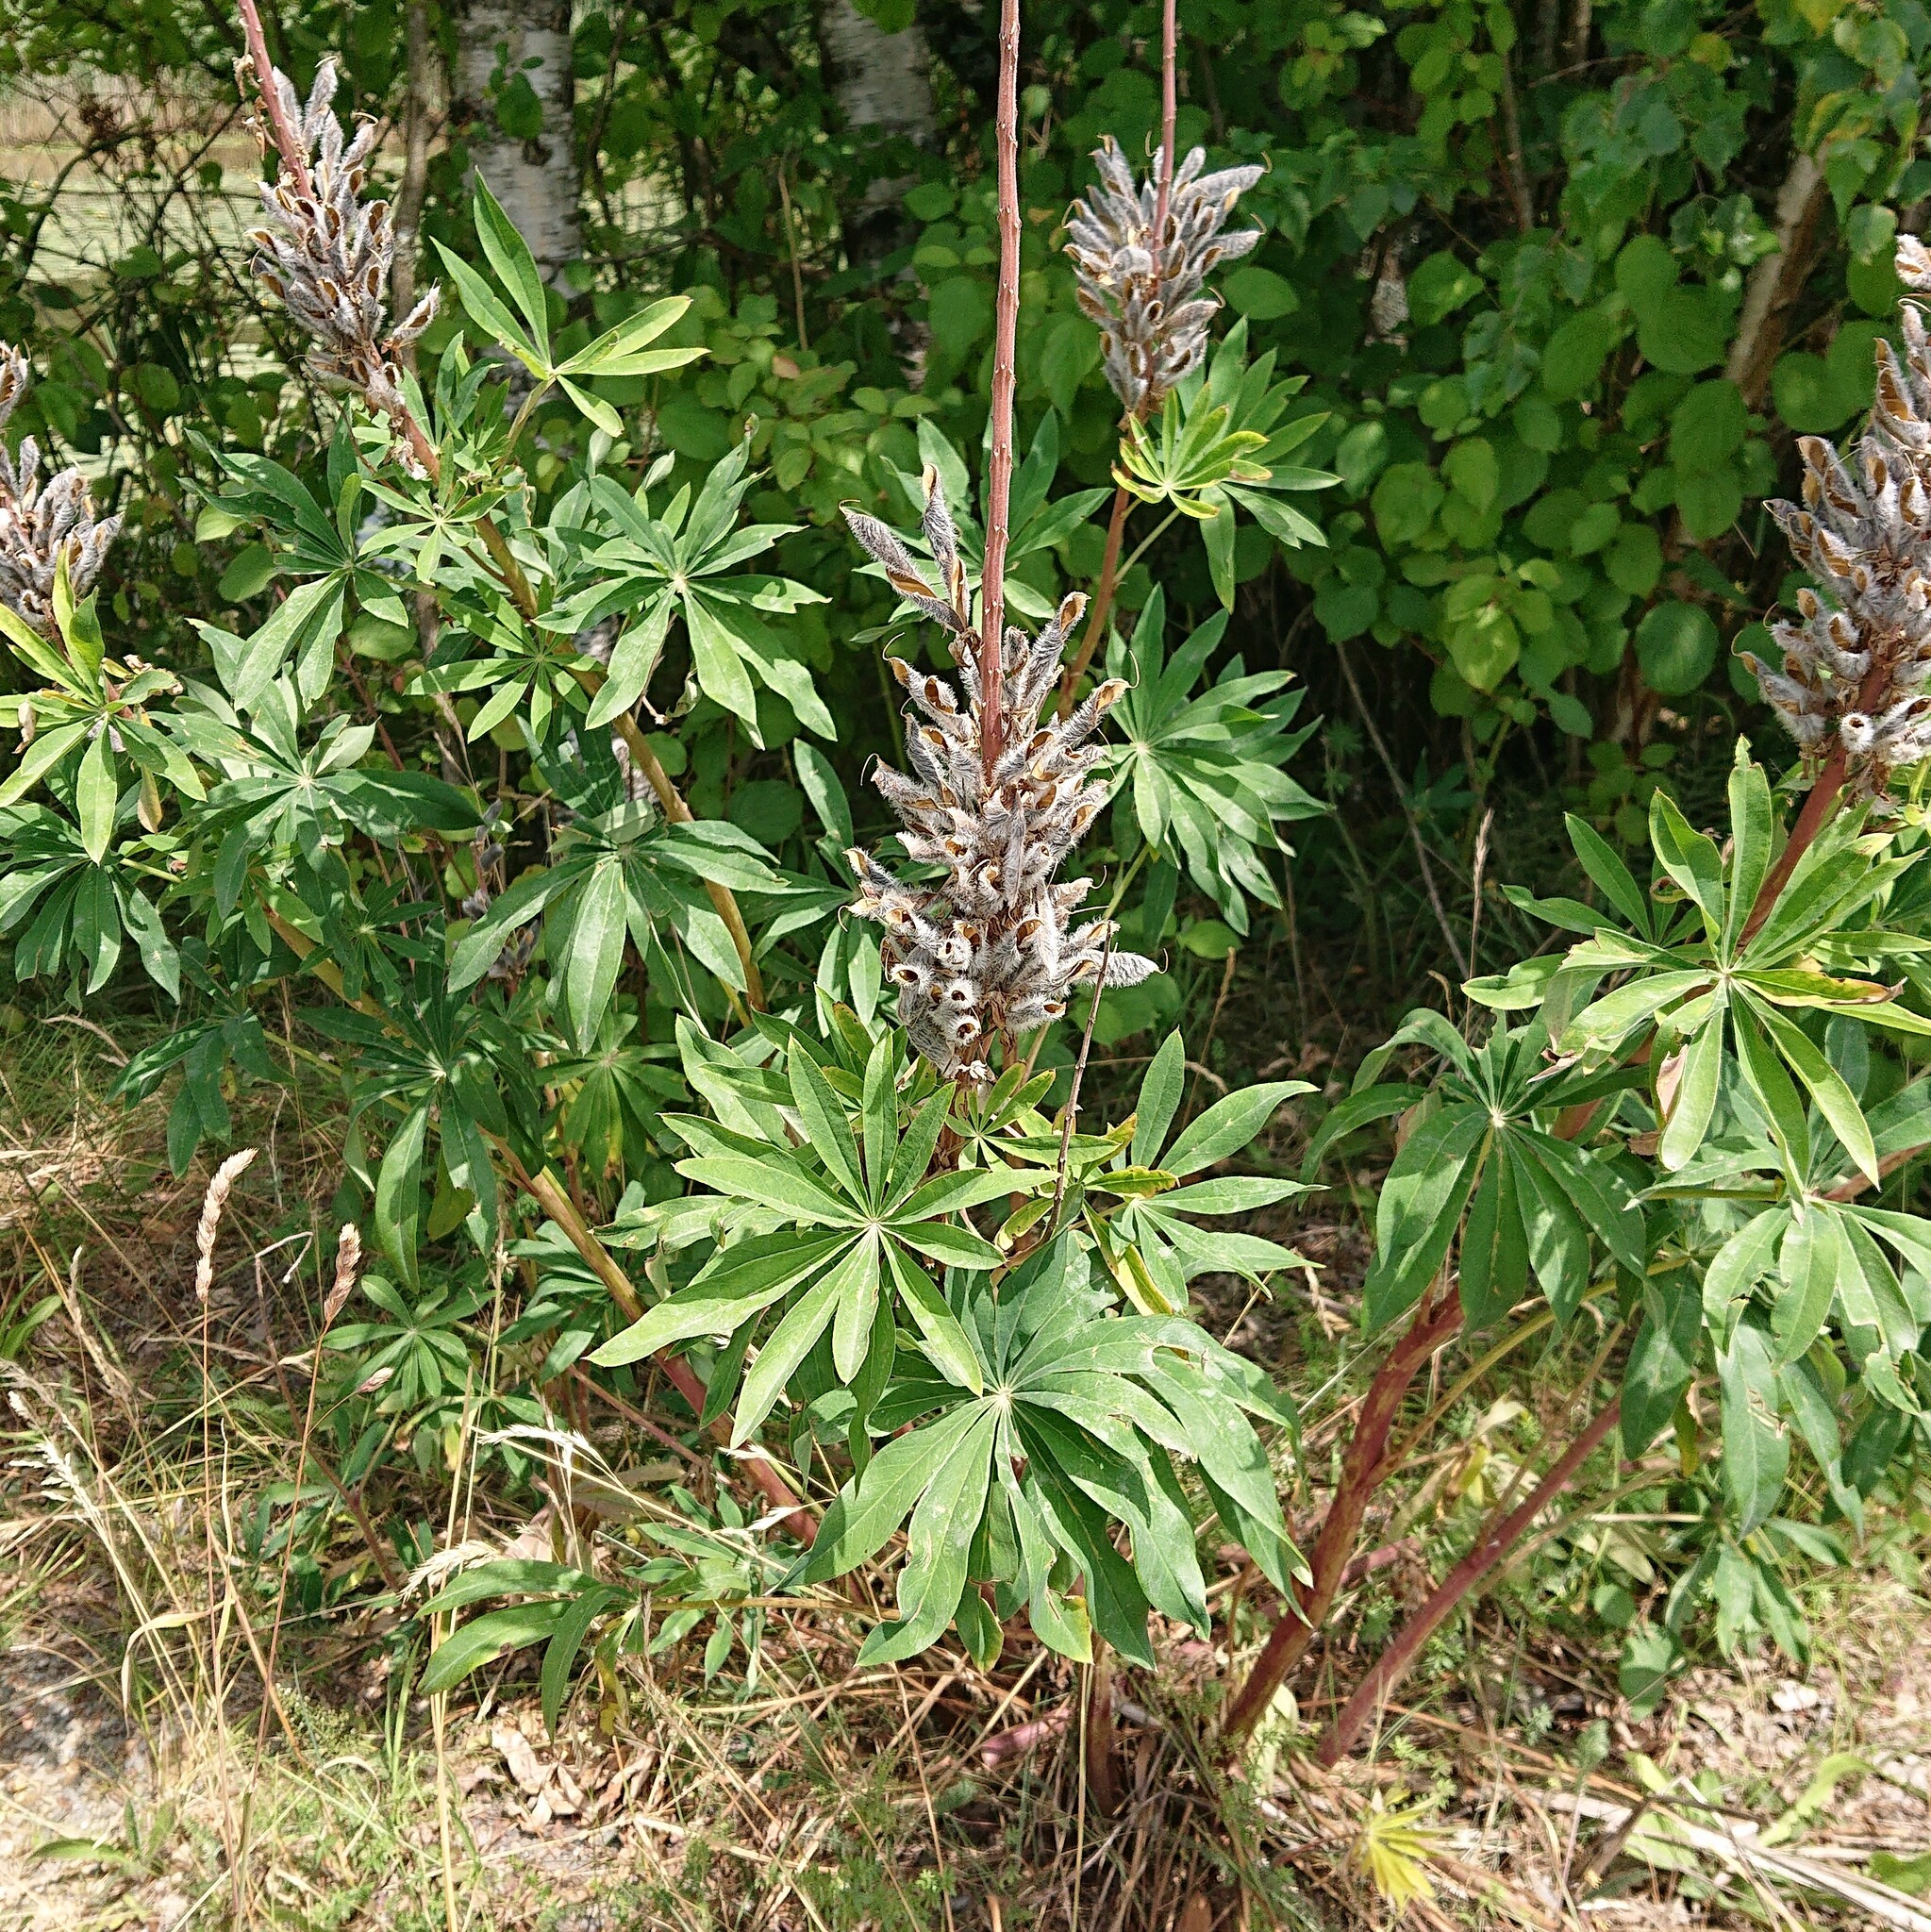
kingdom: Plantae
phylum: Tracheophyta
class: Magnoliopsida
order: Fabales
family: Fabaceae
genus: Lupinus
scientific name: Lupinus polyphyllus
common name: Garden lupin
